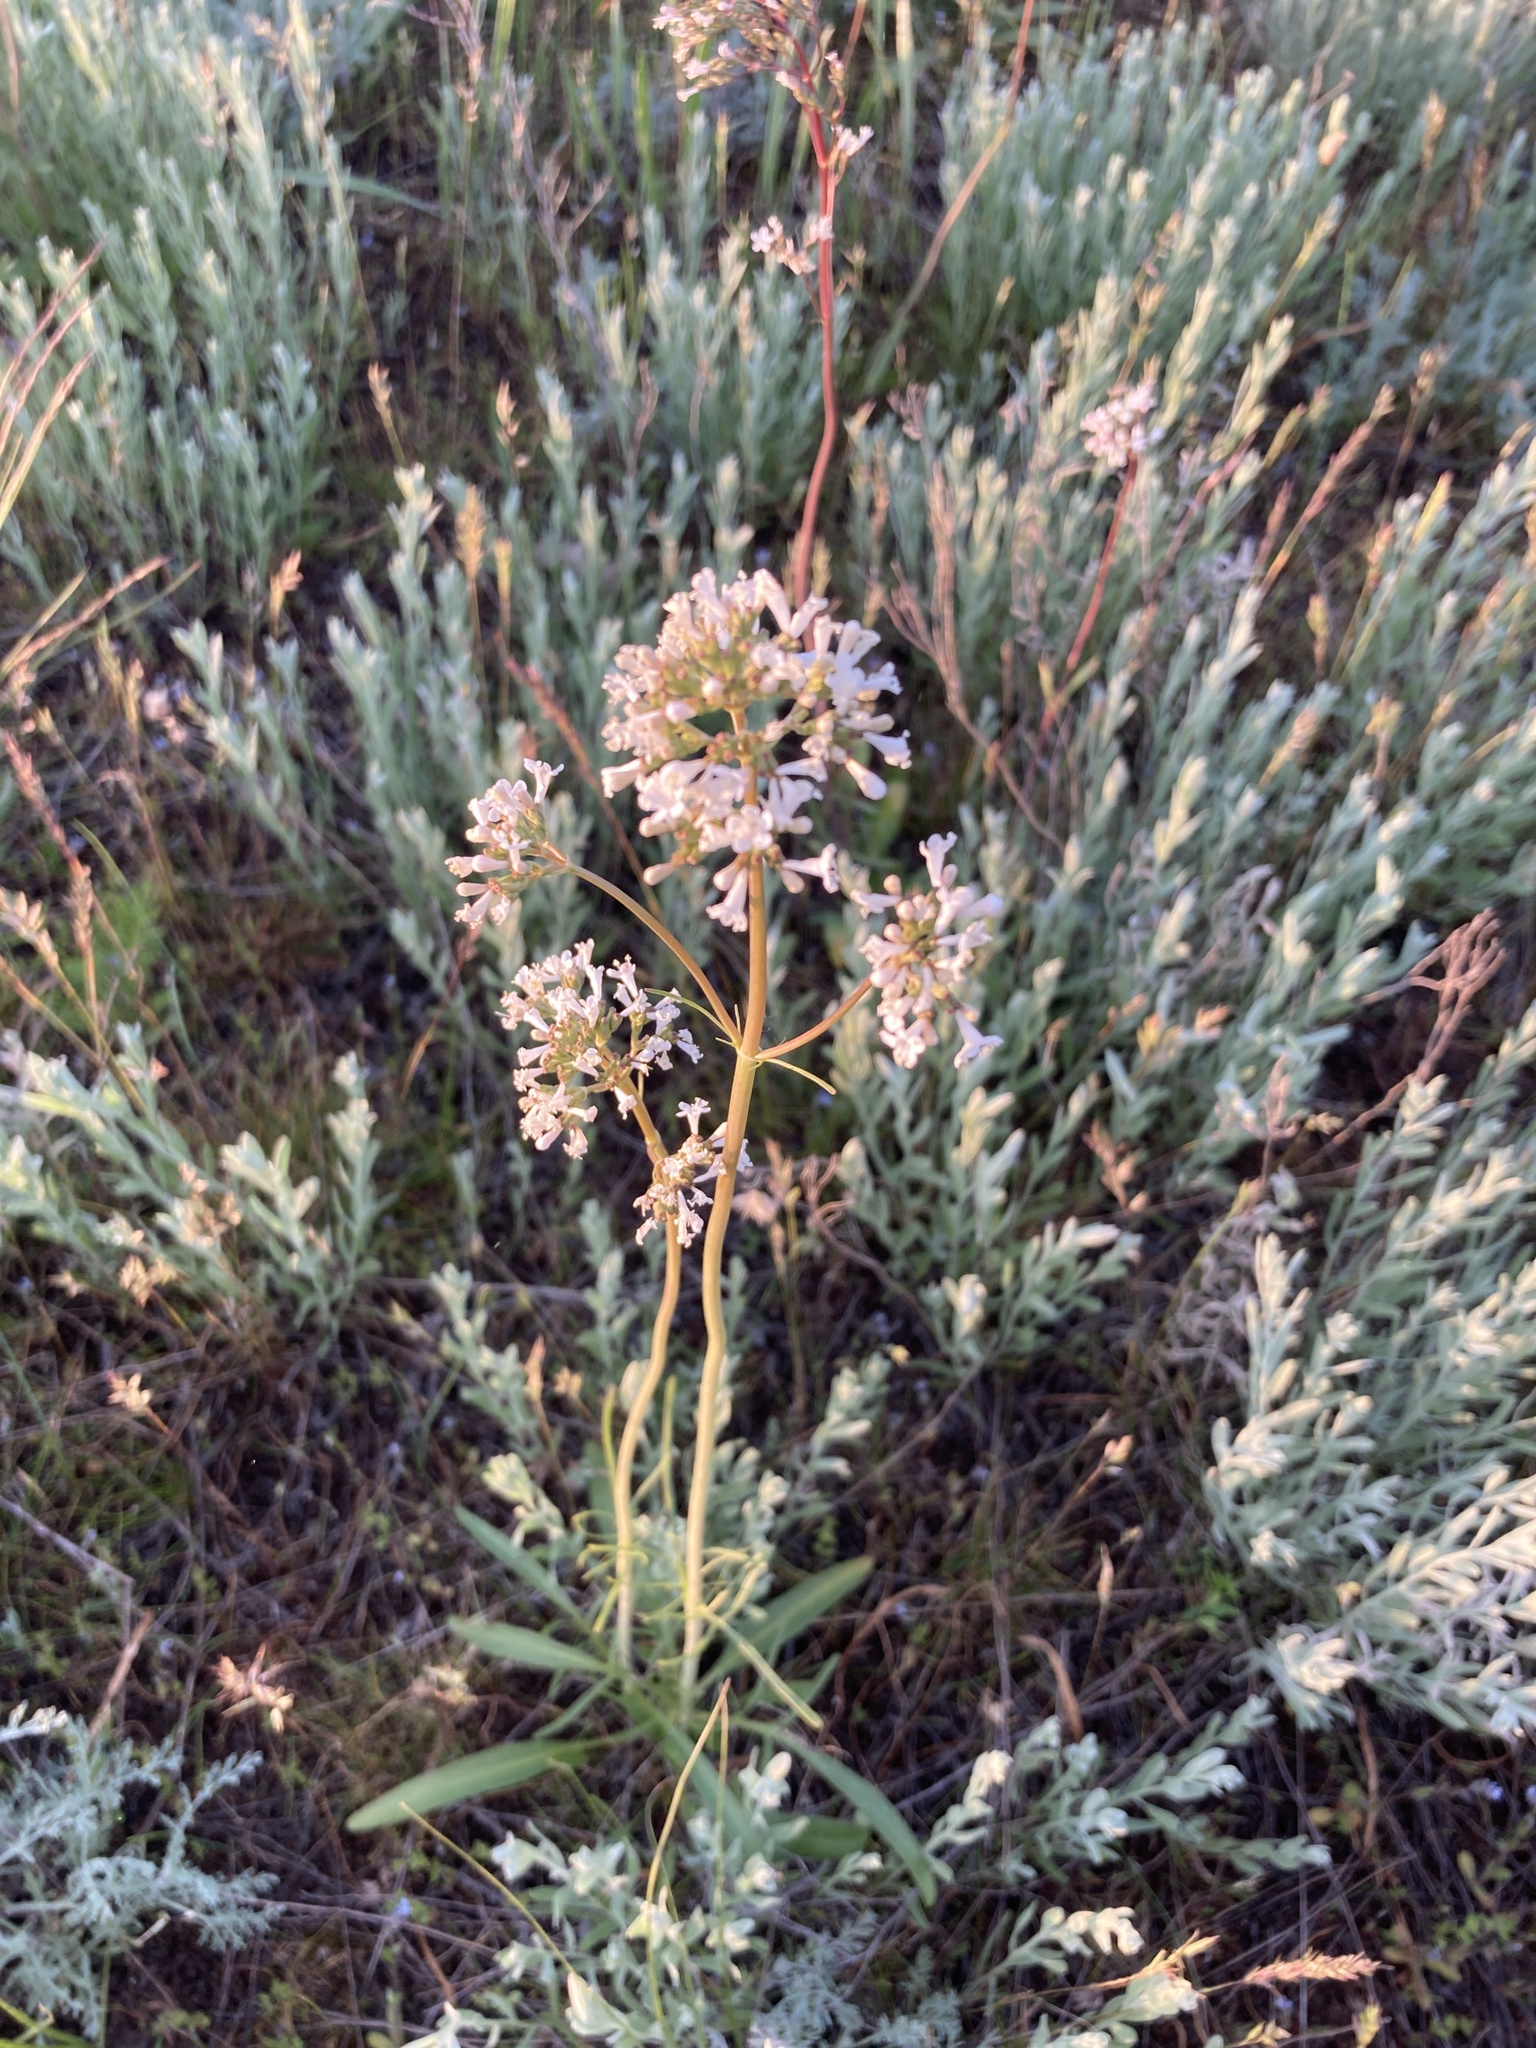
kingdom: Plantae
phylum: Tracheophyta
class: Magnoliopsida
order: Dipsacales
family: Caprifoliaceae
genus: Valeriana
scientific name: Valeriana tuberosa
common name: Tuberous valerian
